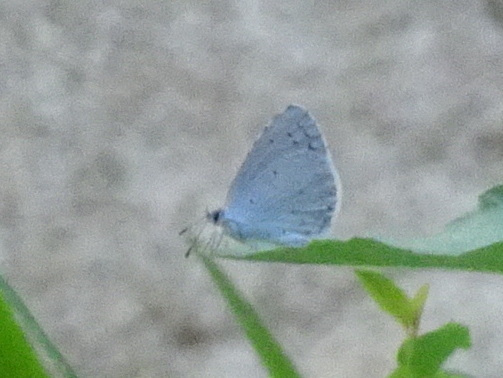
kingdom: Animalia
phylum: Arthropoda
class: Insecta
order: Lepidoptera
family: Lycaenidae
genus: Celastrina
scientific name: Celastrina argiolus
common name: Holly blue
